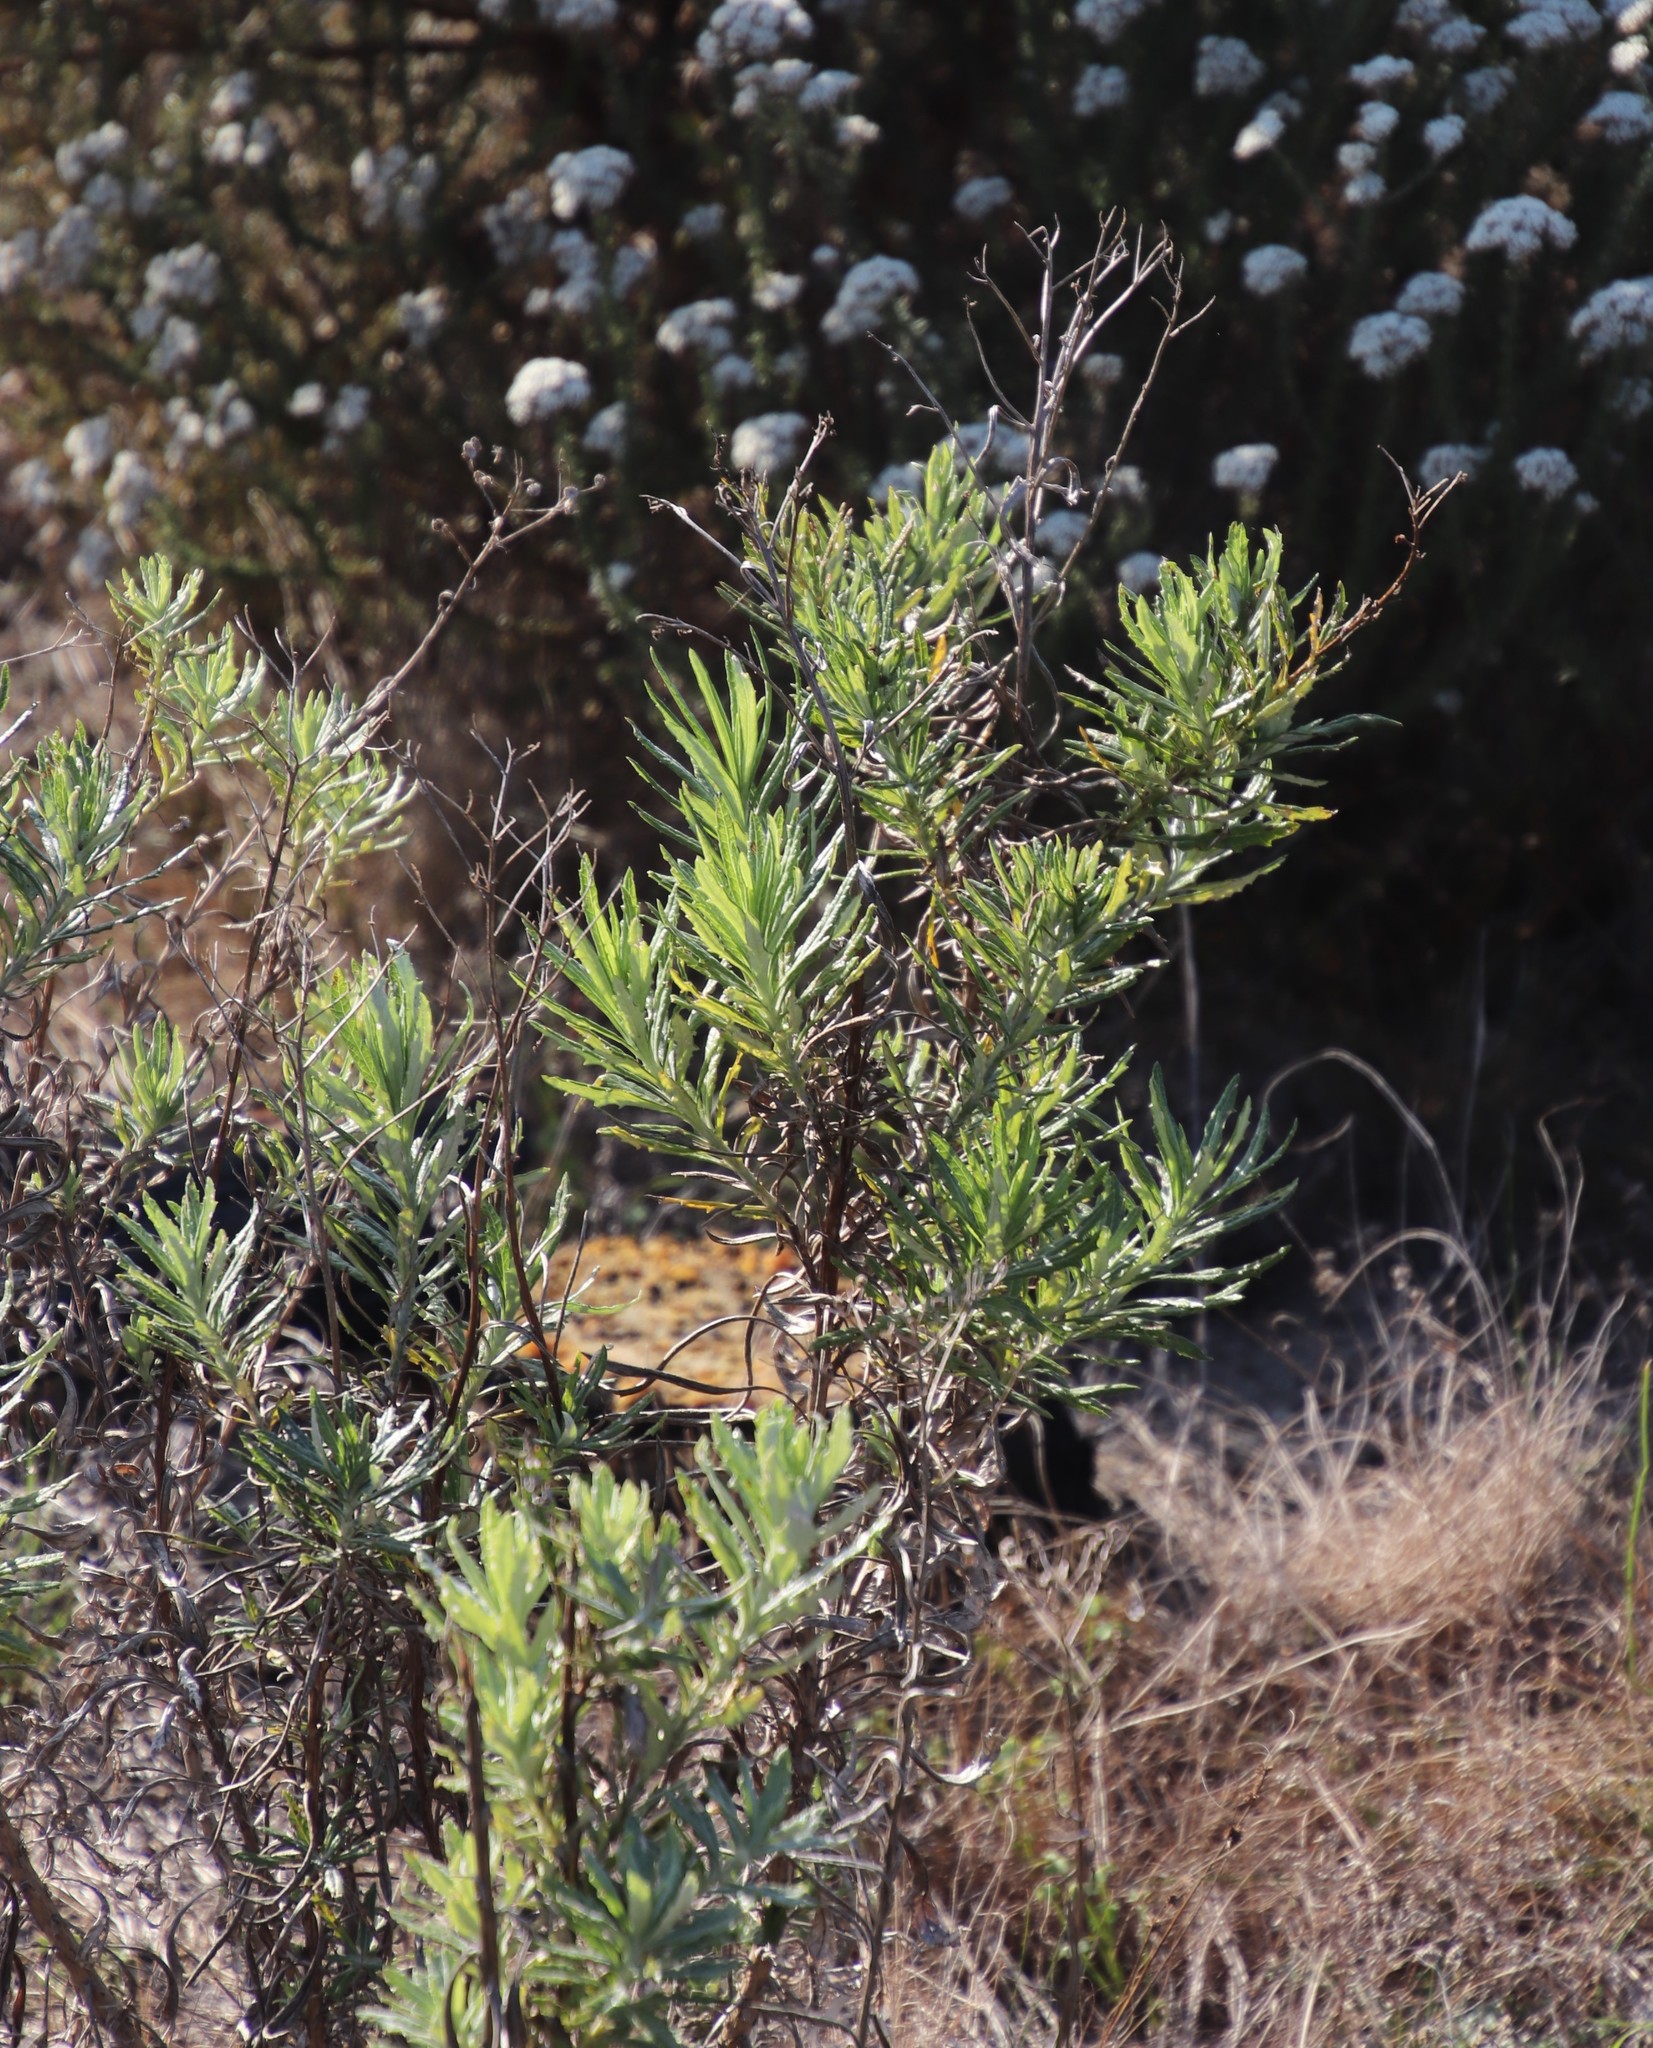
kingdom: Plantae
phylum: Tracheophyta
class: Magnoliopsida
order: Asterales
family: Asteraceae
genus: Senecio
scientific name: Senecio pterophorus
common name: Shoddy ragwort
